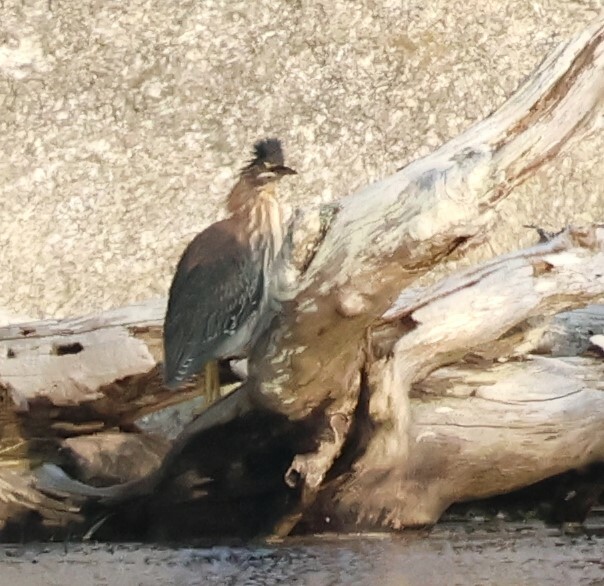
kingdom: Animalia
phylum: Chordata
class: Aves
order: Pelecaniformes
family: Ardeidae
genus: Butorides
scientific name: Butorides virescens
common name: Green heron
